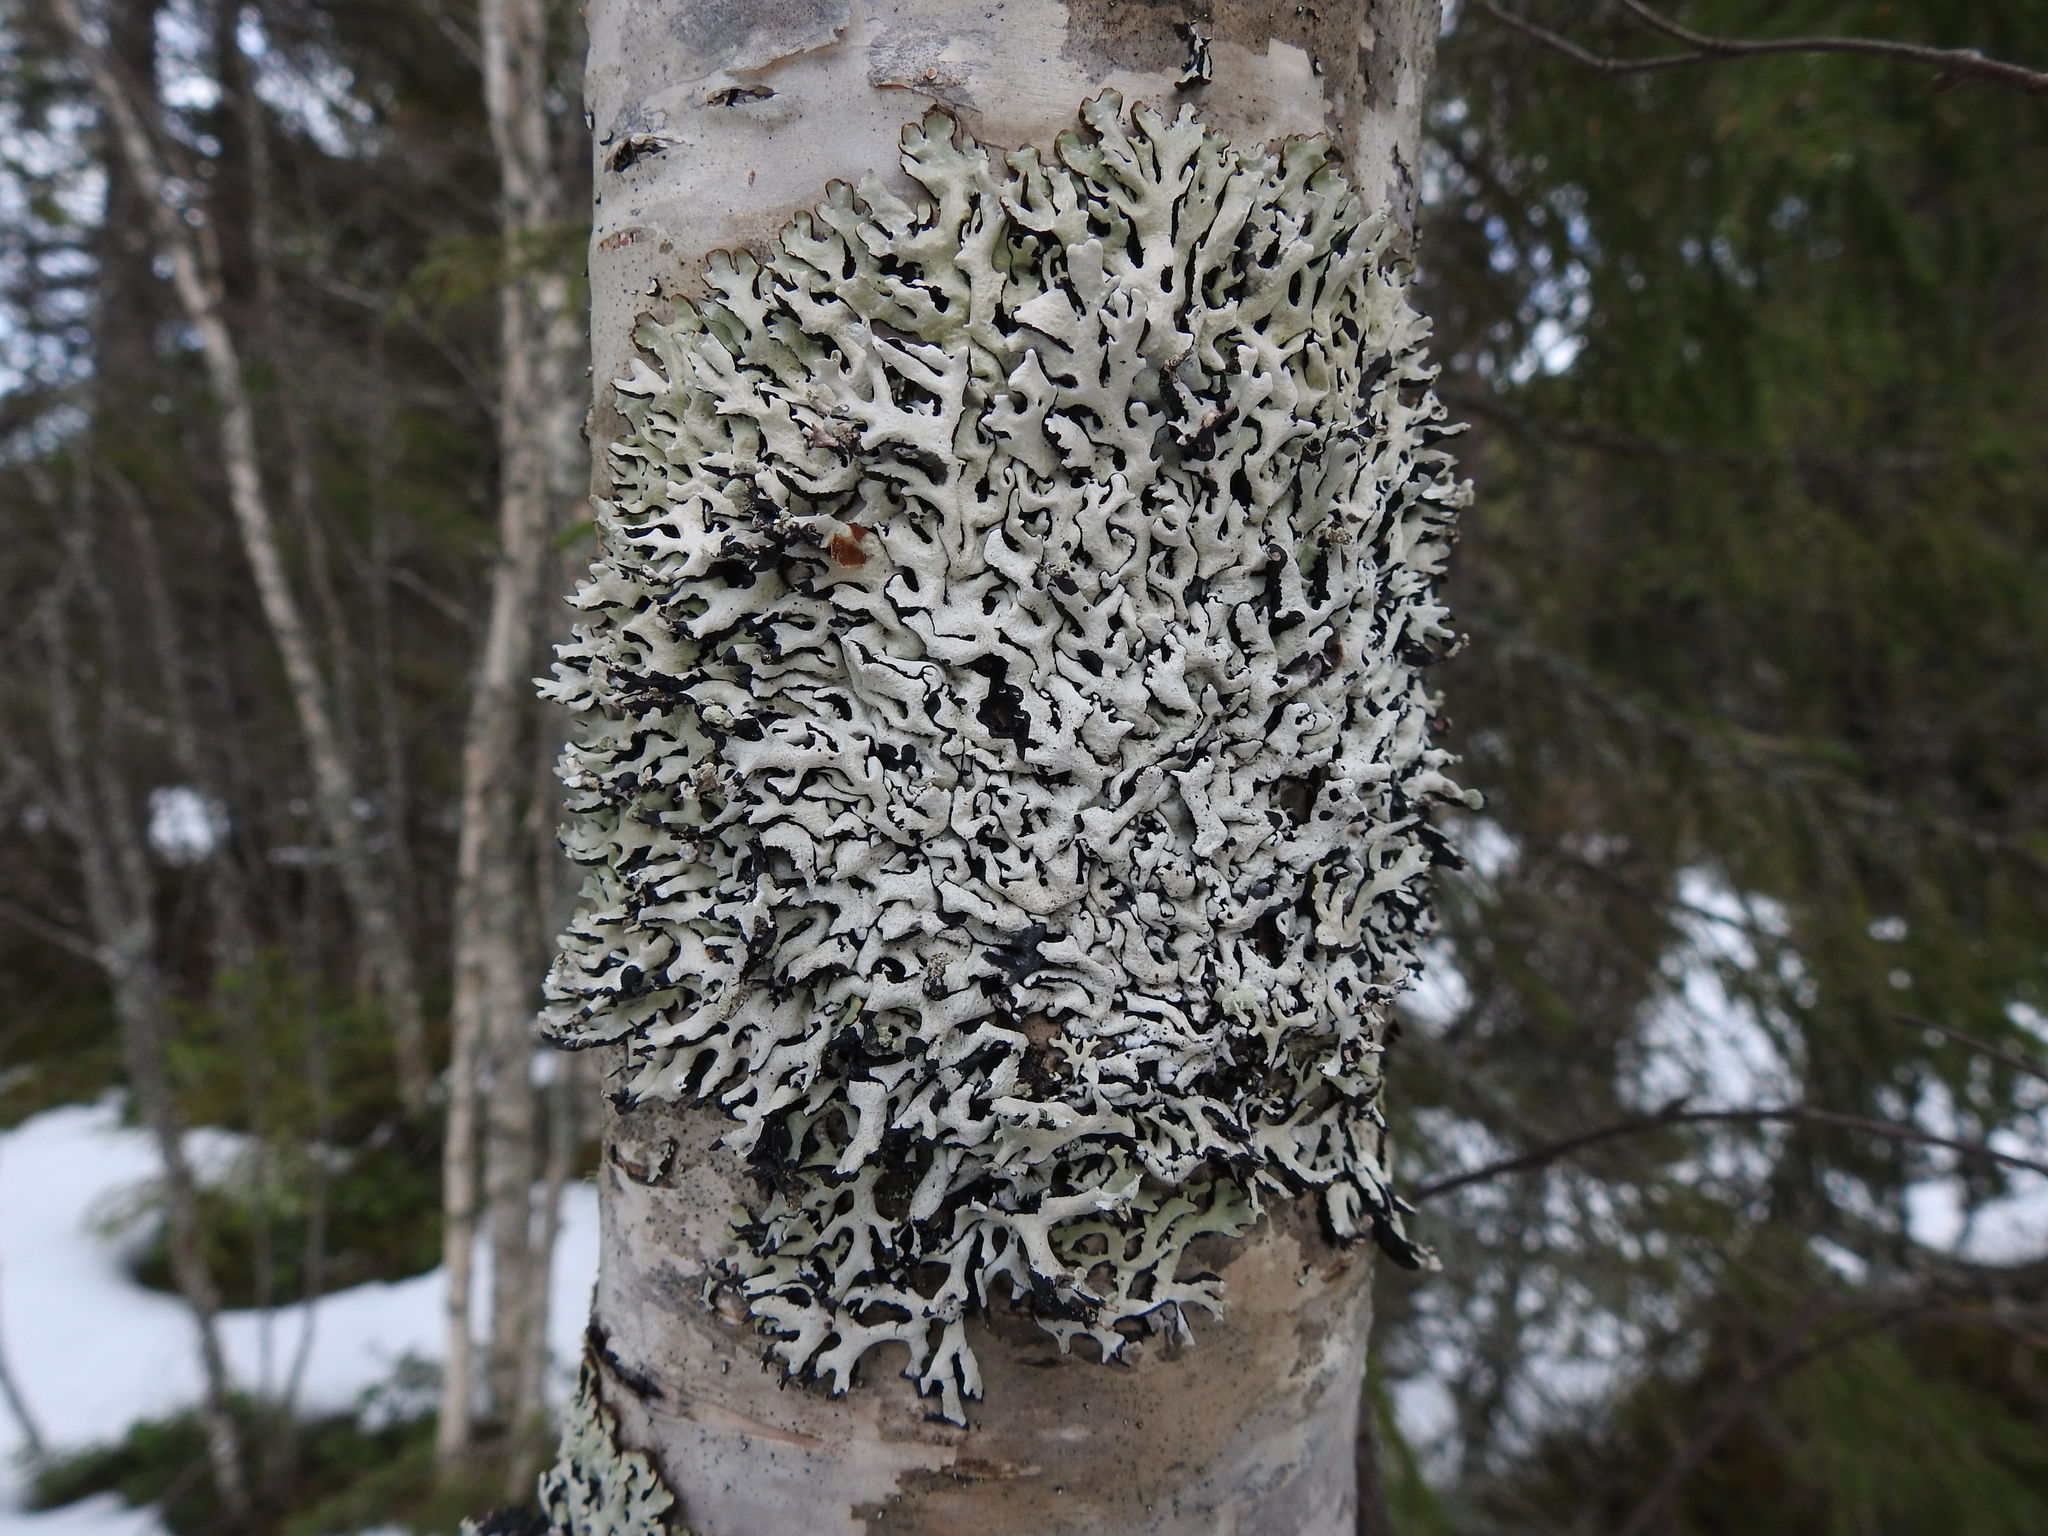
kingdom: Fungi
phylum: Ascomycota
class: Lecanoromycetes
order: Lecanorales
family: Parmeliaceae
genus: Hypogymnia
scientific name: Hypogymnia physodes
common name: Dark crottle
